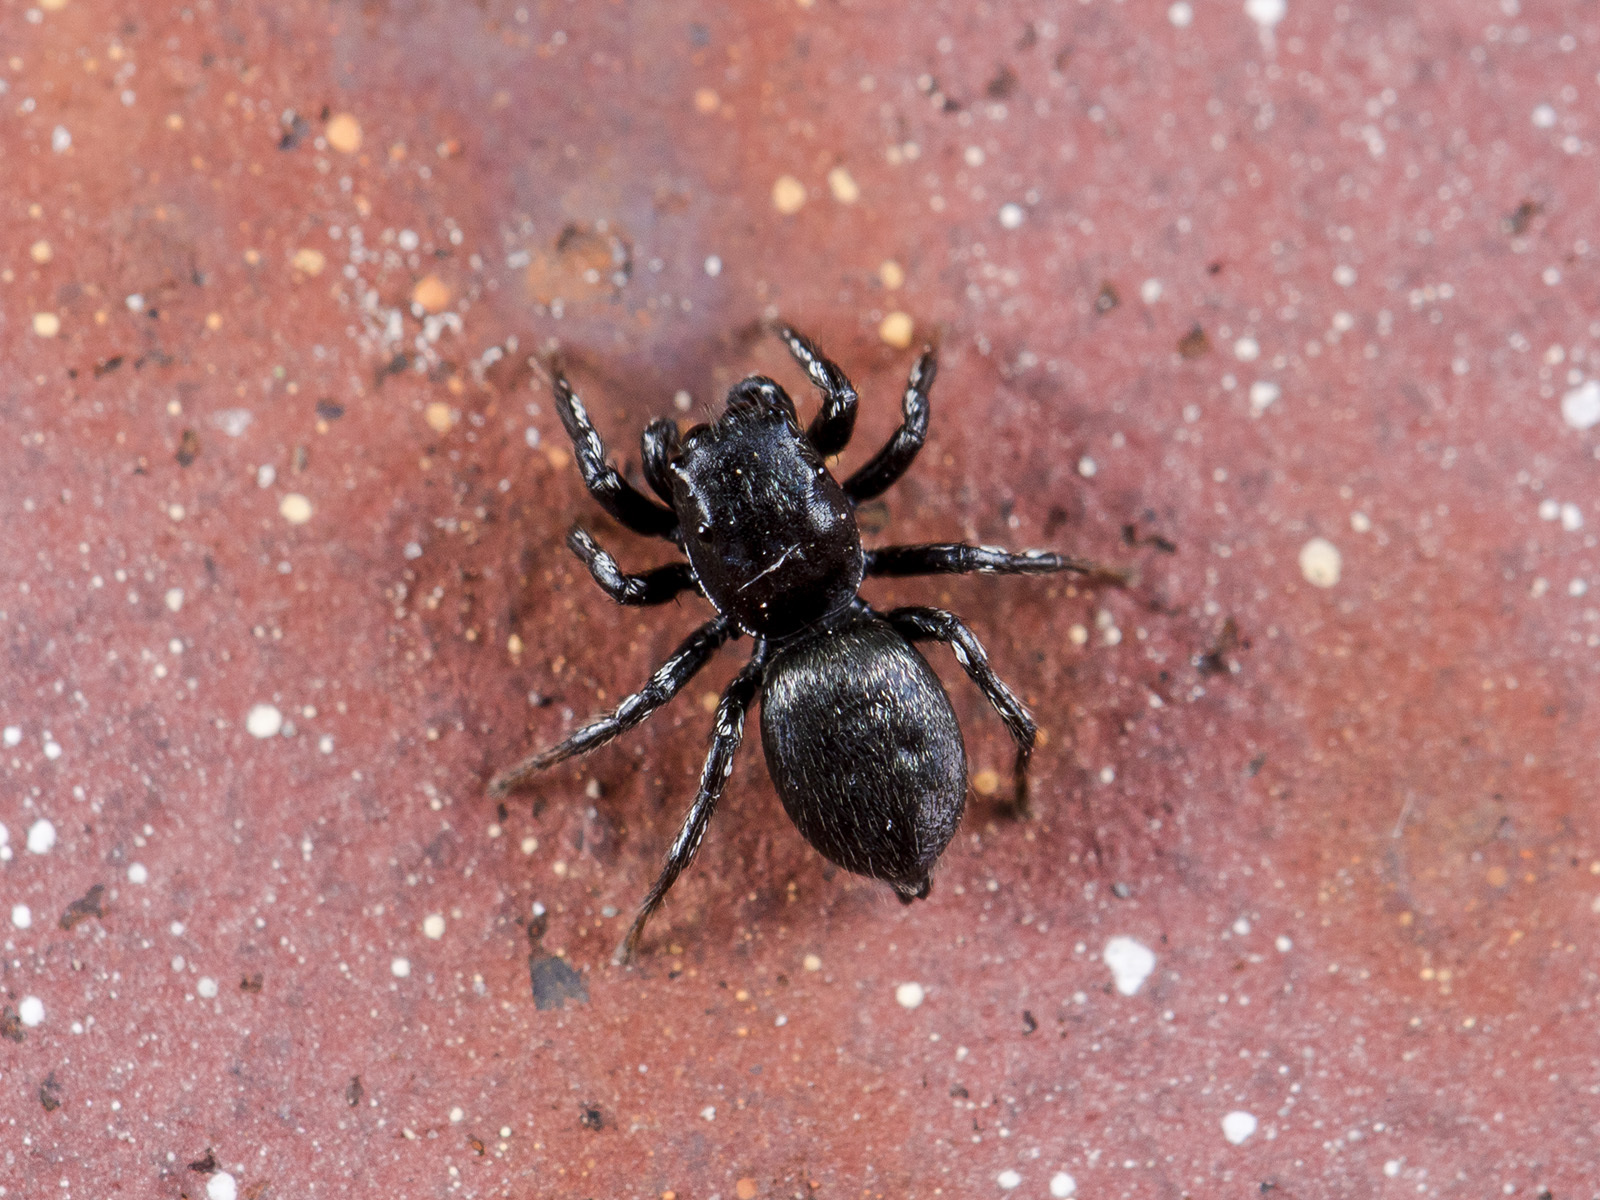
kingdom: Animalia
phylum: Arthropoda
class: Arachnida
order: Araneae
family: Salticidae
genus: Heliophanus
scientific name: Heliophanus potanini
